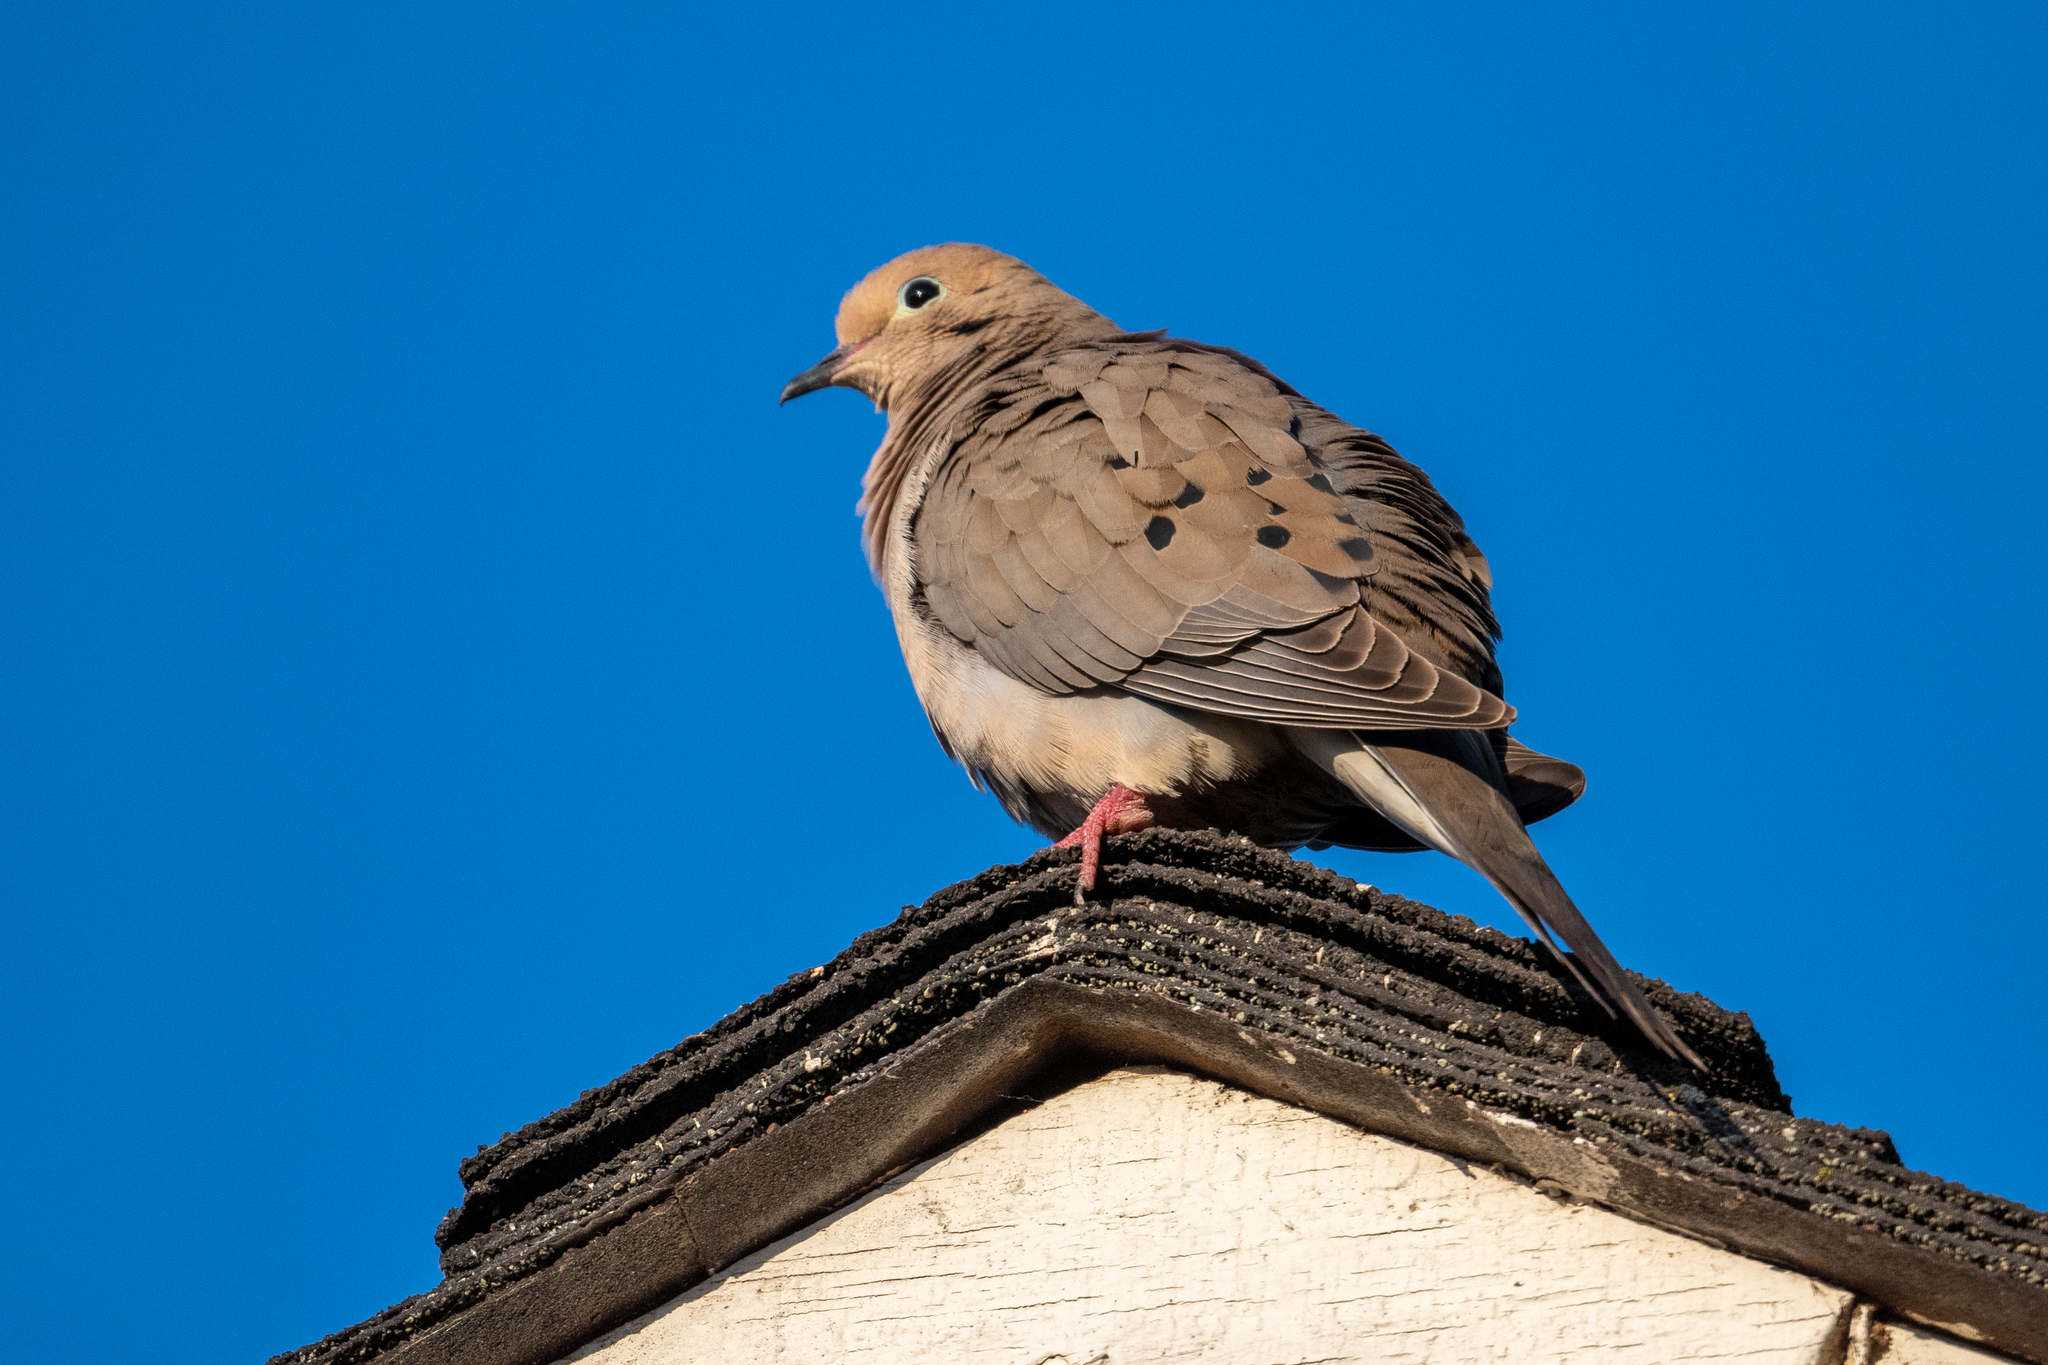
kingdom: Animalia
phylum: Chordata
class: Aves
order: Columbiformes
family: Columbidae
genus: Zenaida
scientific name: Zenaida macroura
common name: Mourning dove
